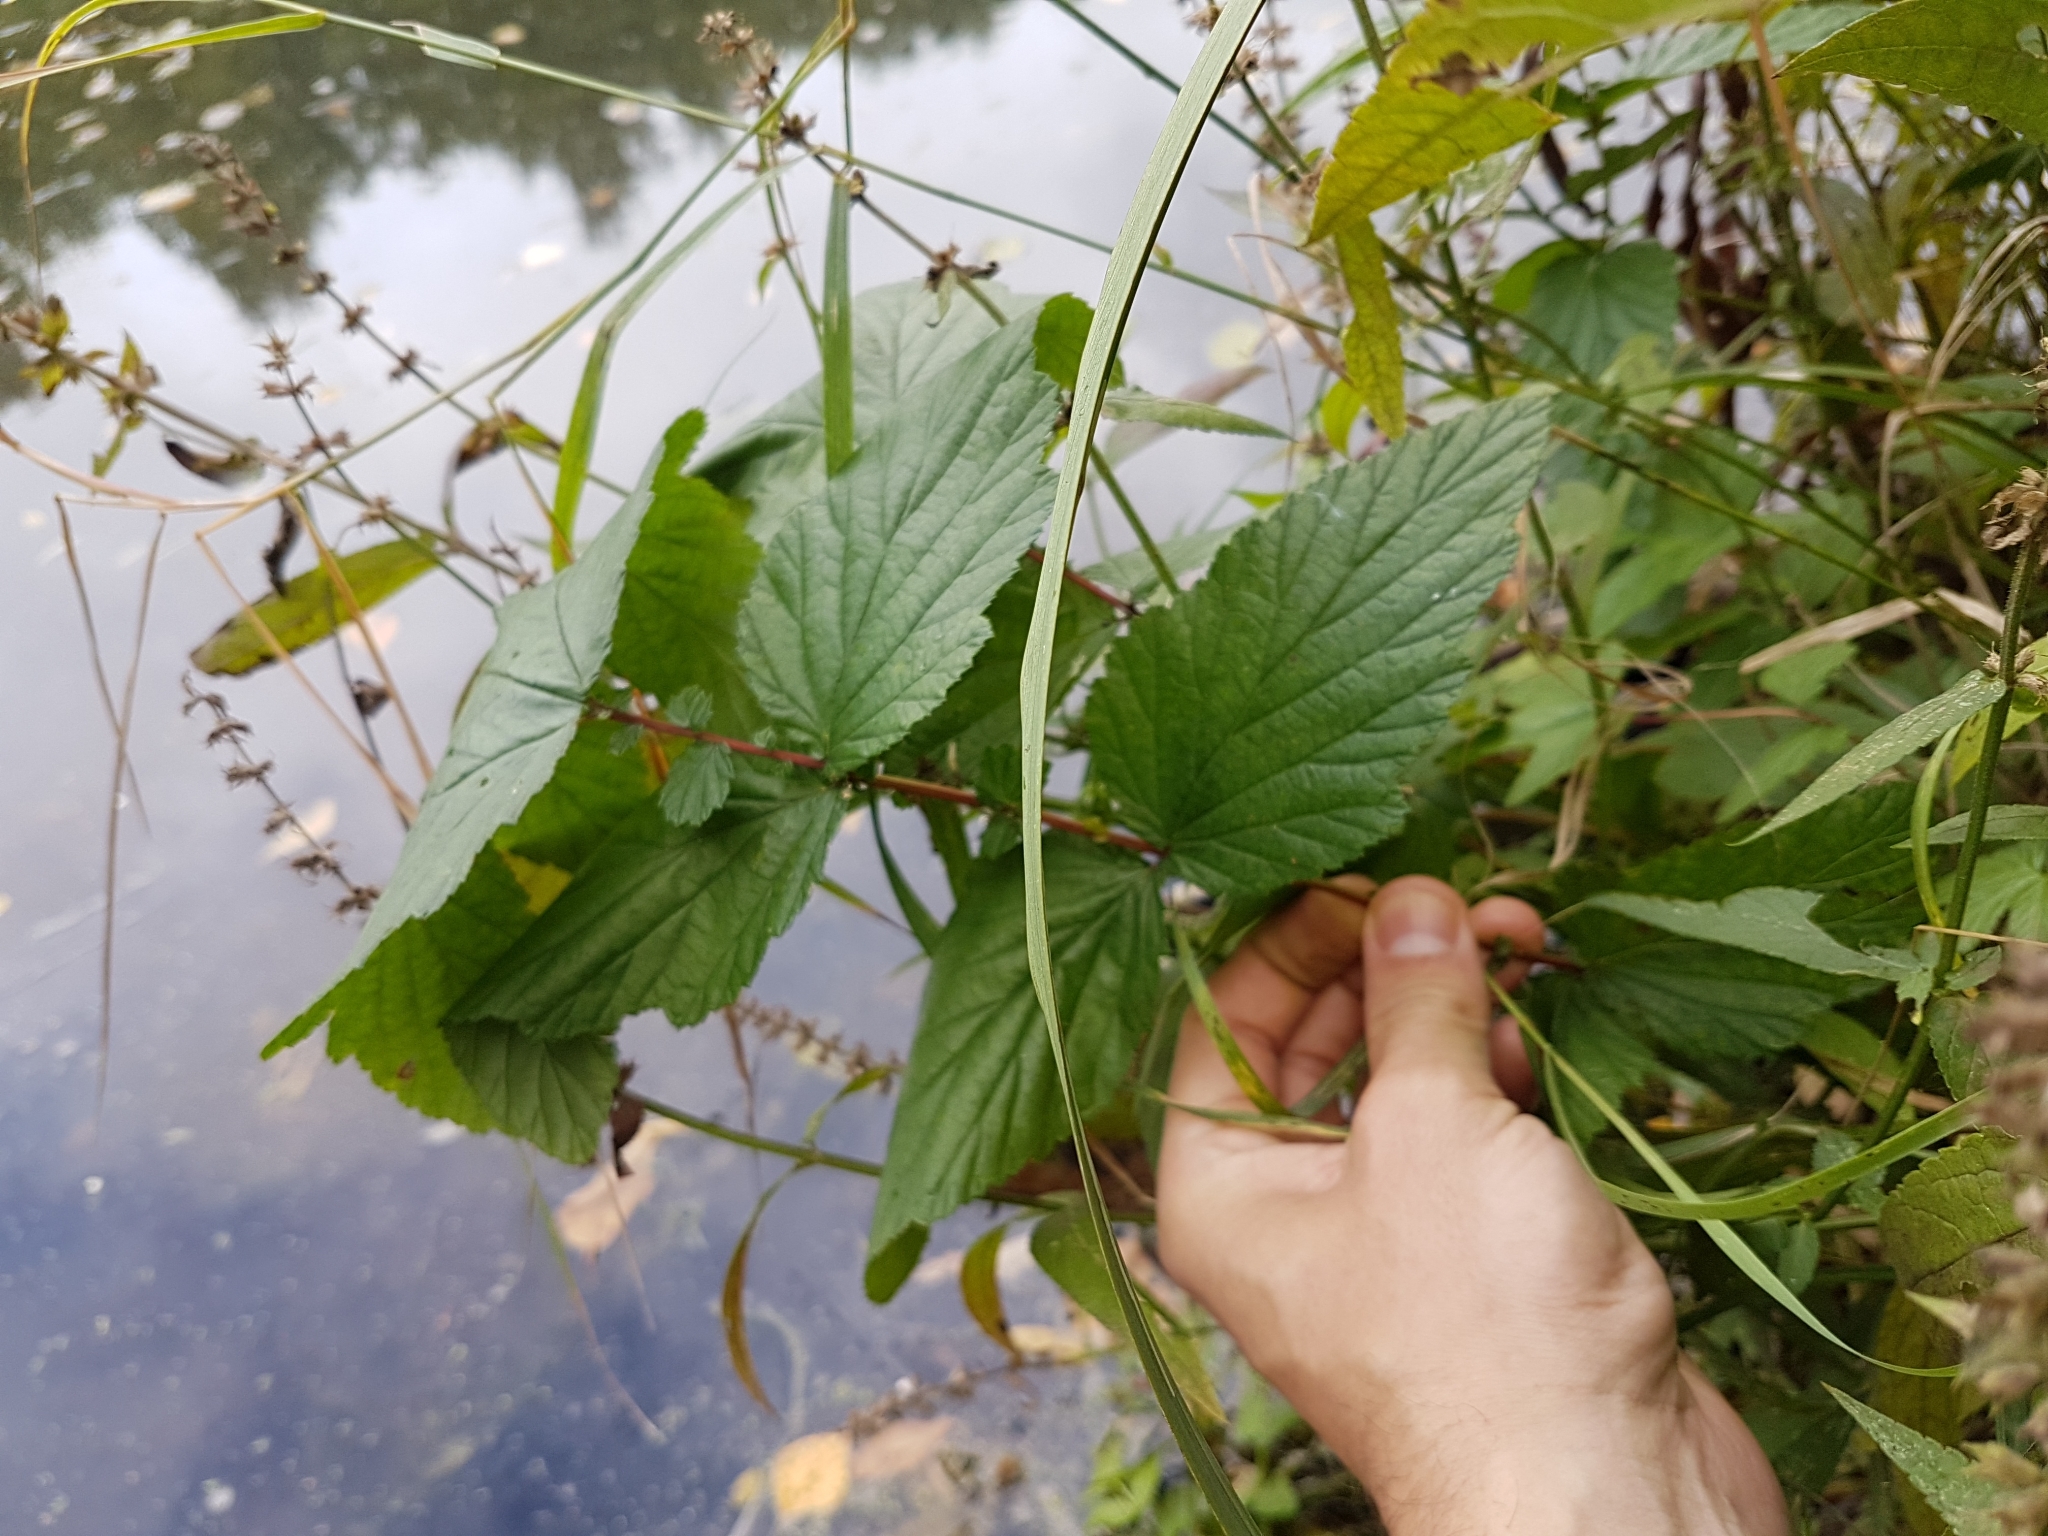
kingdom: Plantae
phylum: Tracheophyta
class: Magnoliopsida
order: Rosales
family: Rosaceae
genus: Filipendula
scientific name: Filipendula ulmaria
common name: Meadowsweet
